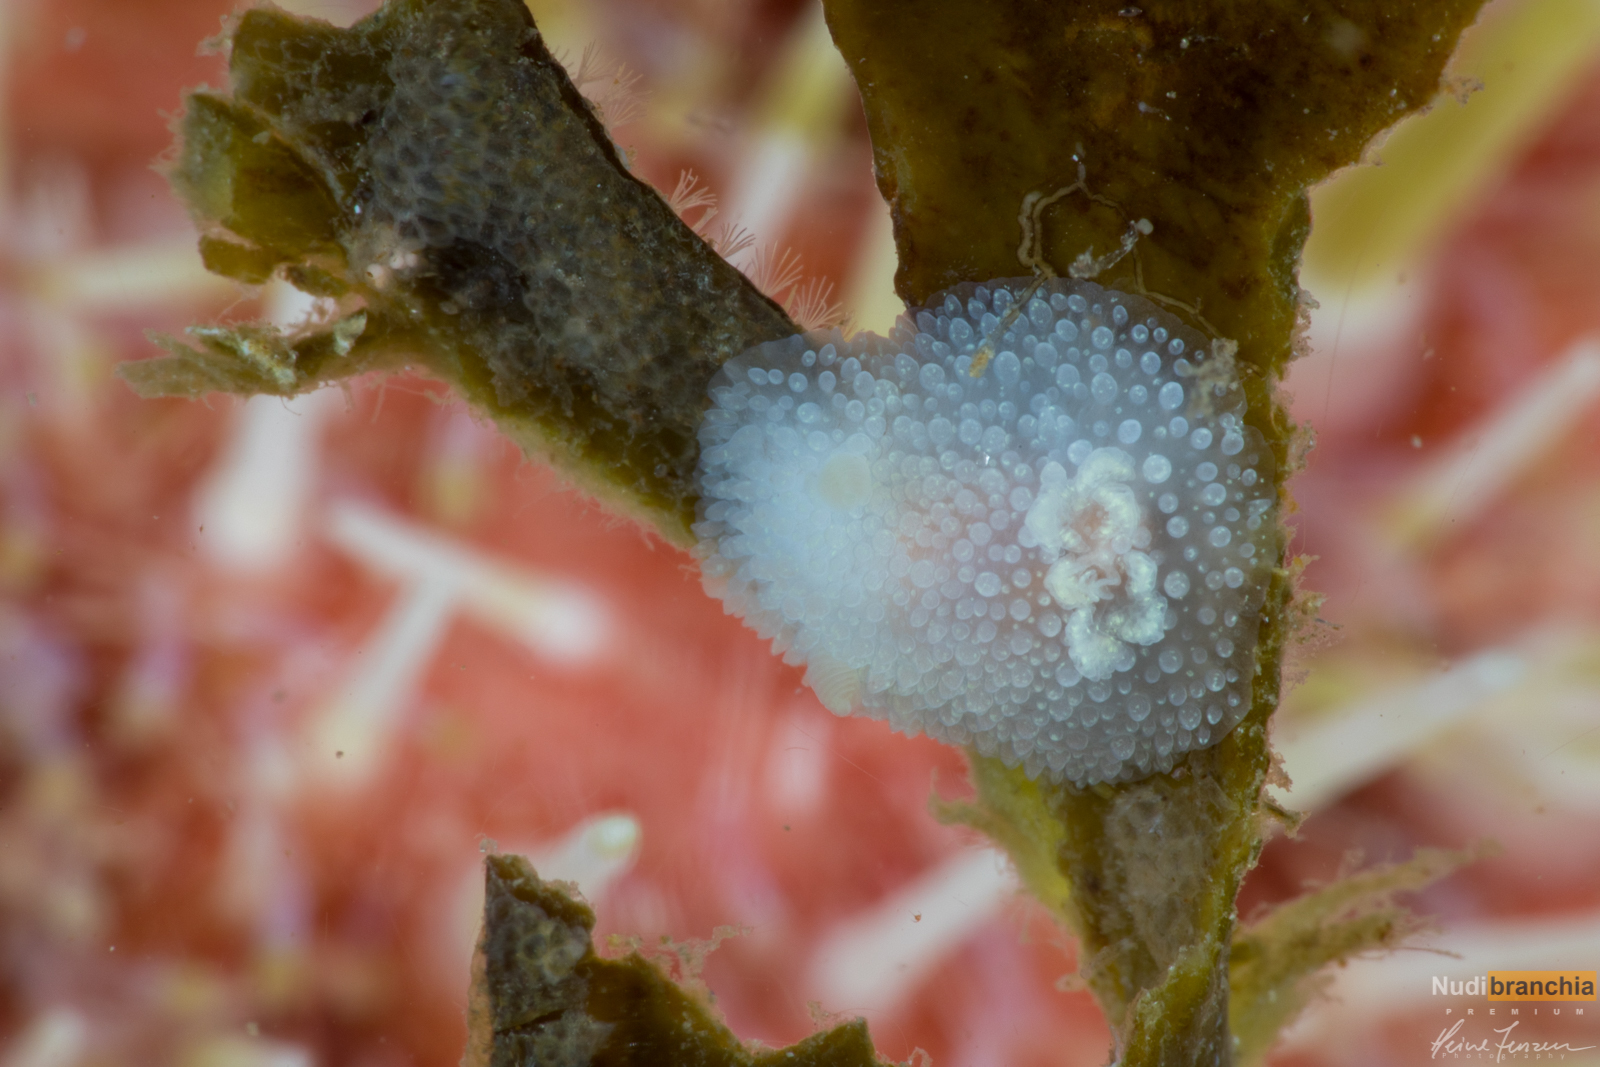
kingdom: Animalia
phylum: Mollusca
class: Gastropoda
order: Nudibranchia
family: Onchidorididae
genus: Acanthodoris
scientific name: Acanthodoris pilosa
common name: Hairy spiny doris
